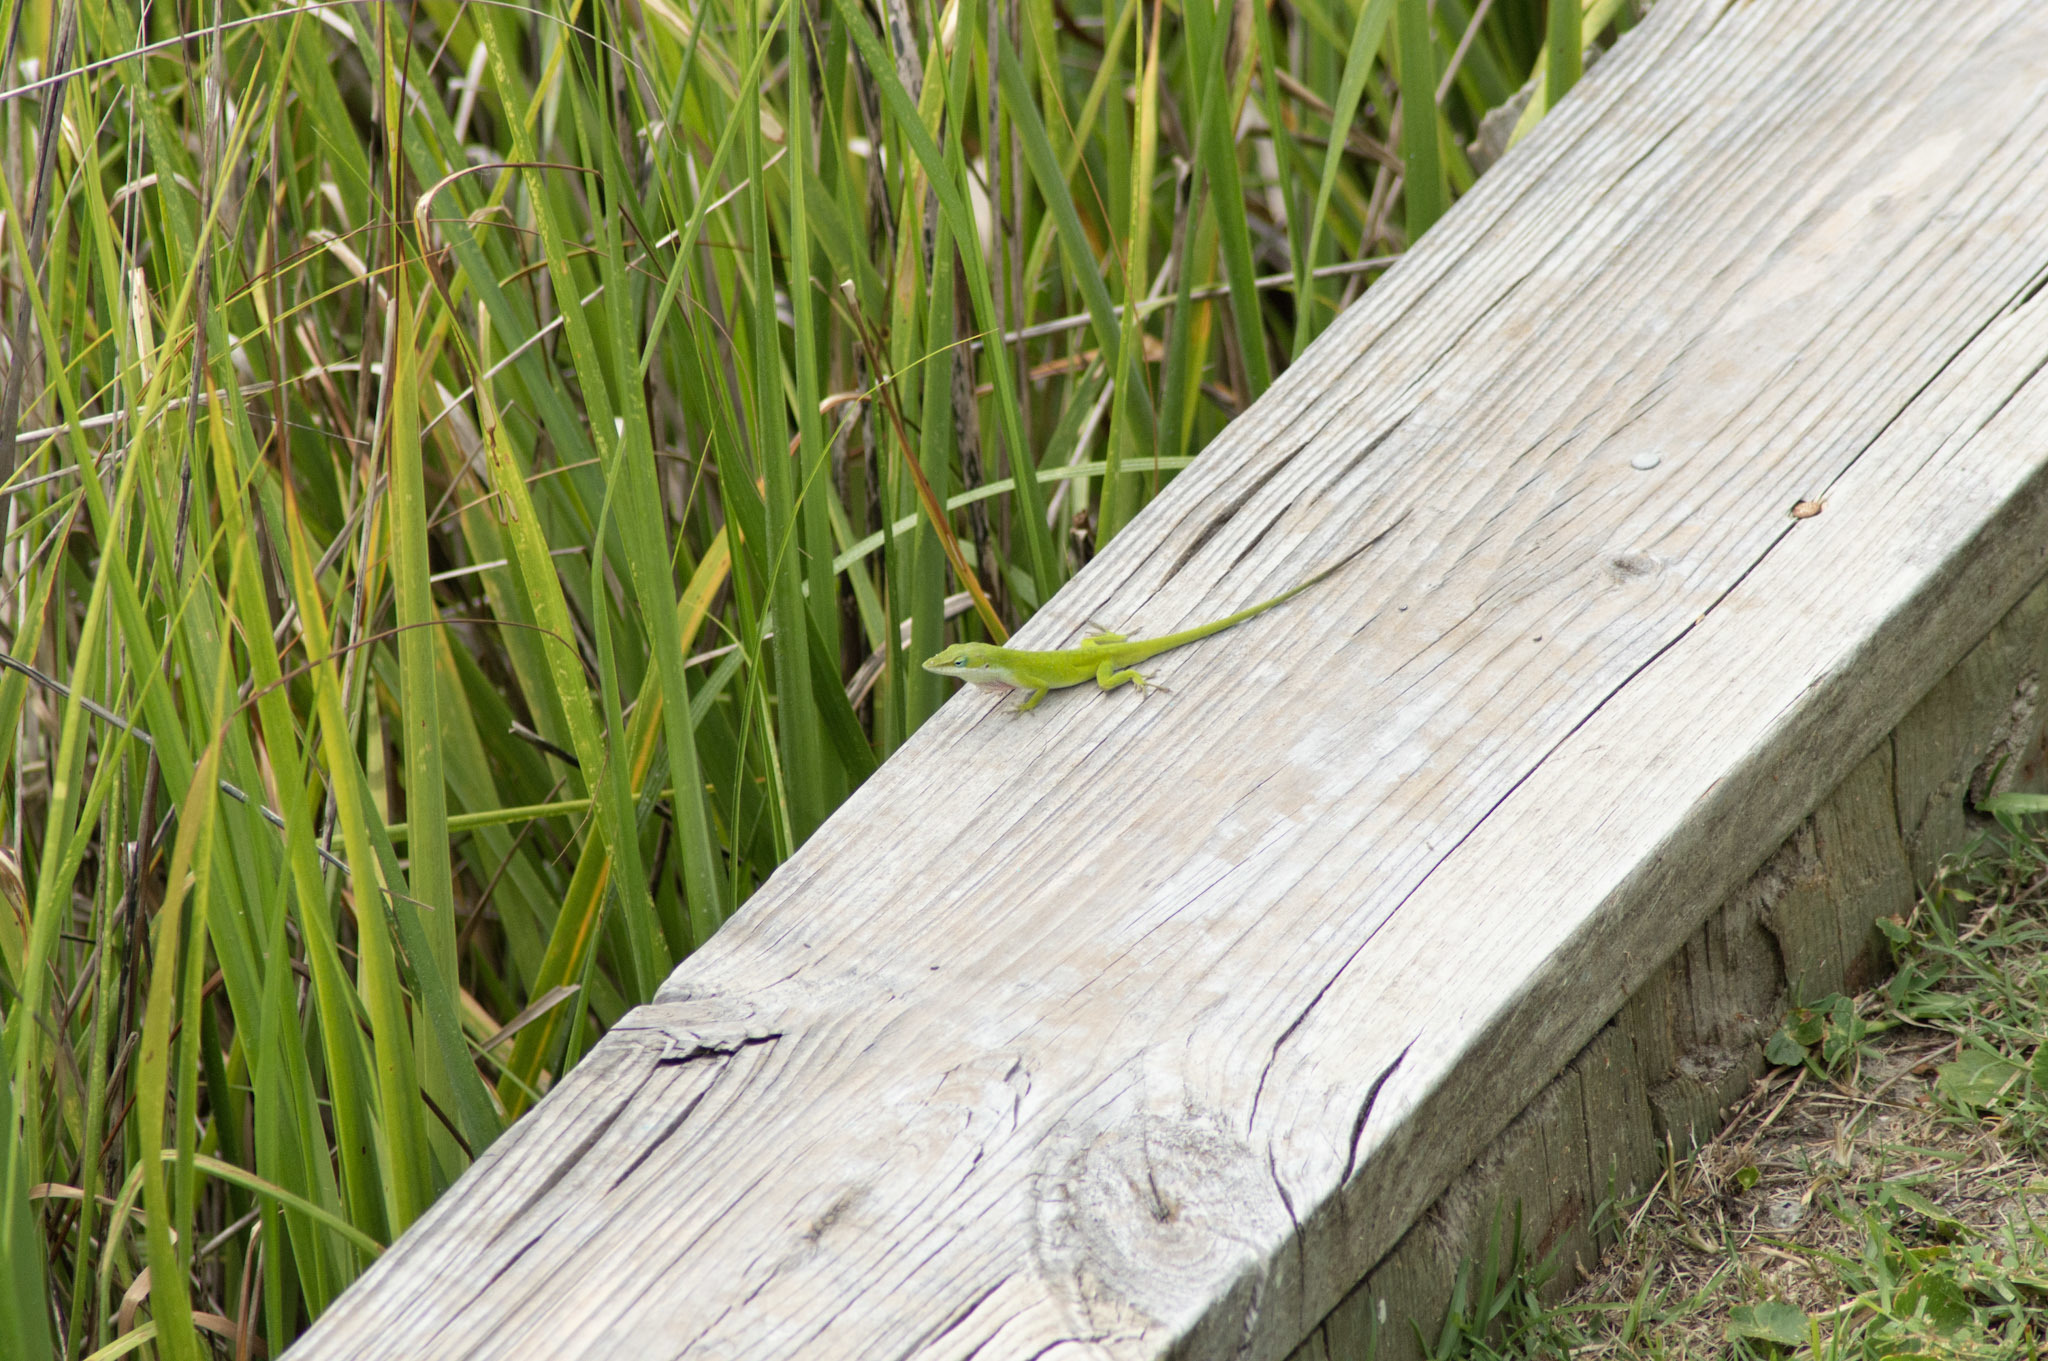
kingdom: Animalia
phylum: Chordata
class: Squamata
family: Dactyloidae
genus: Anolis
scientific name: Anolis carolinensis
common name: Green anole
